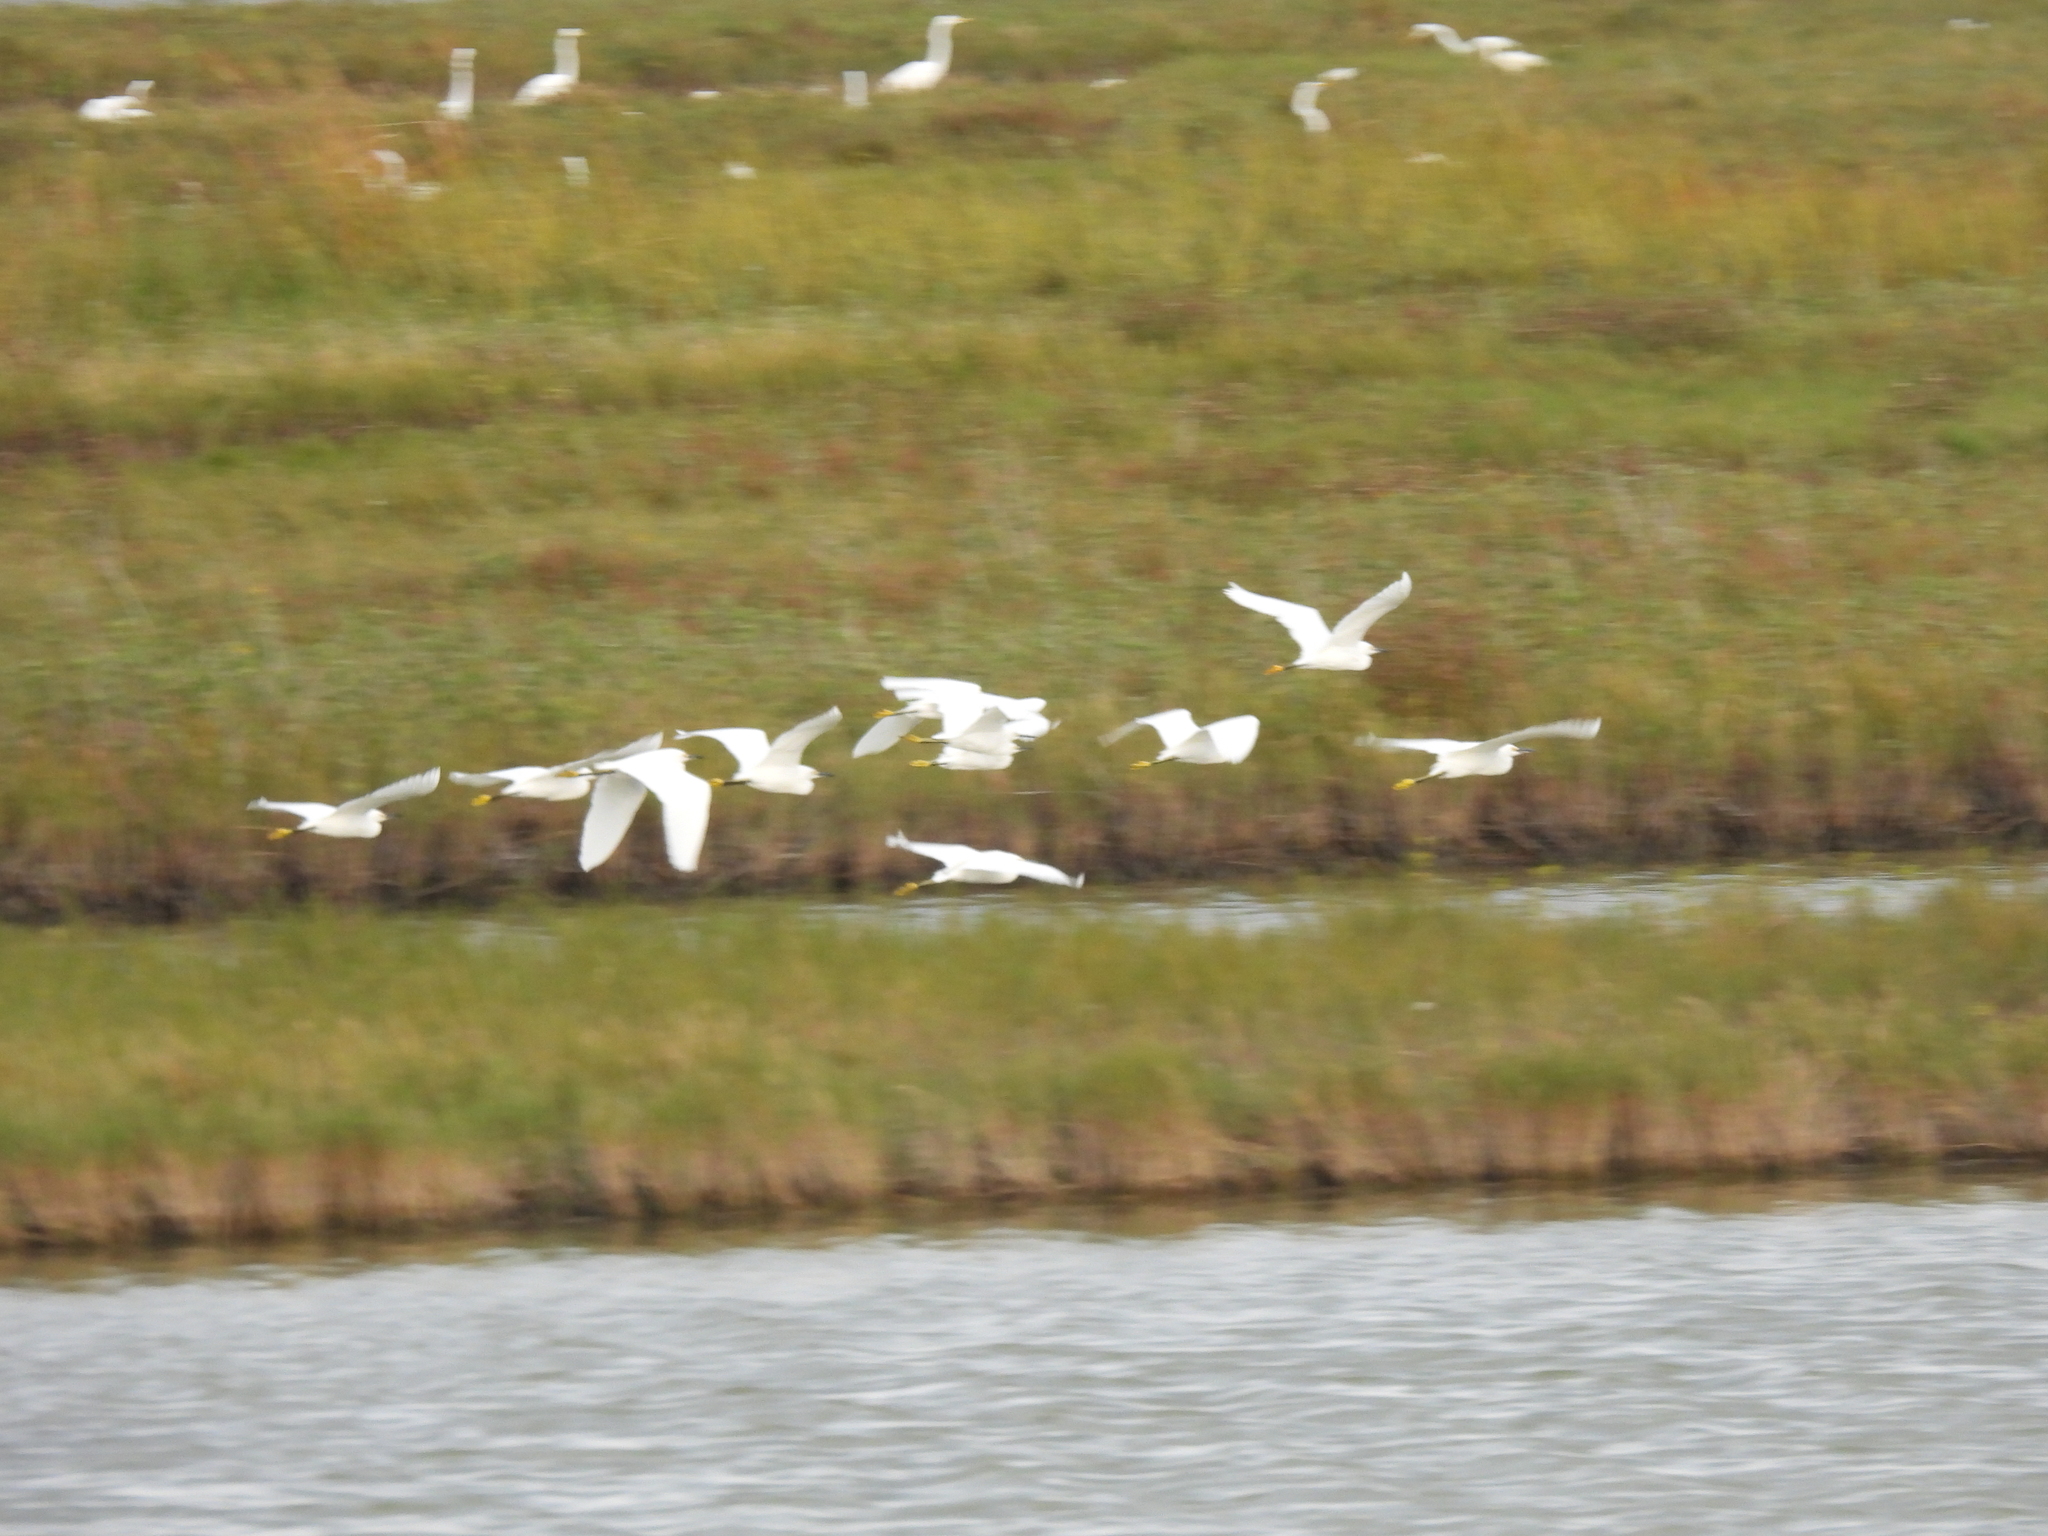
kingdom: Animalia
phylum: Chordata
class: Aves
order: Pelecaniformes
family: Ardeidae
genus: Egretta
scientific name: Egretta thula
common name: Snowy egret
